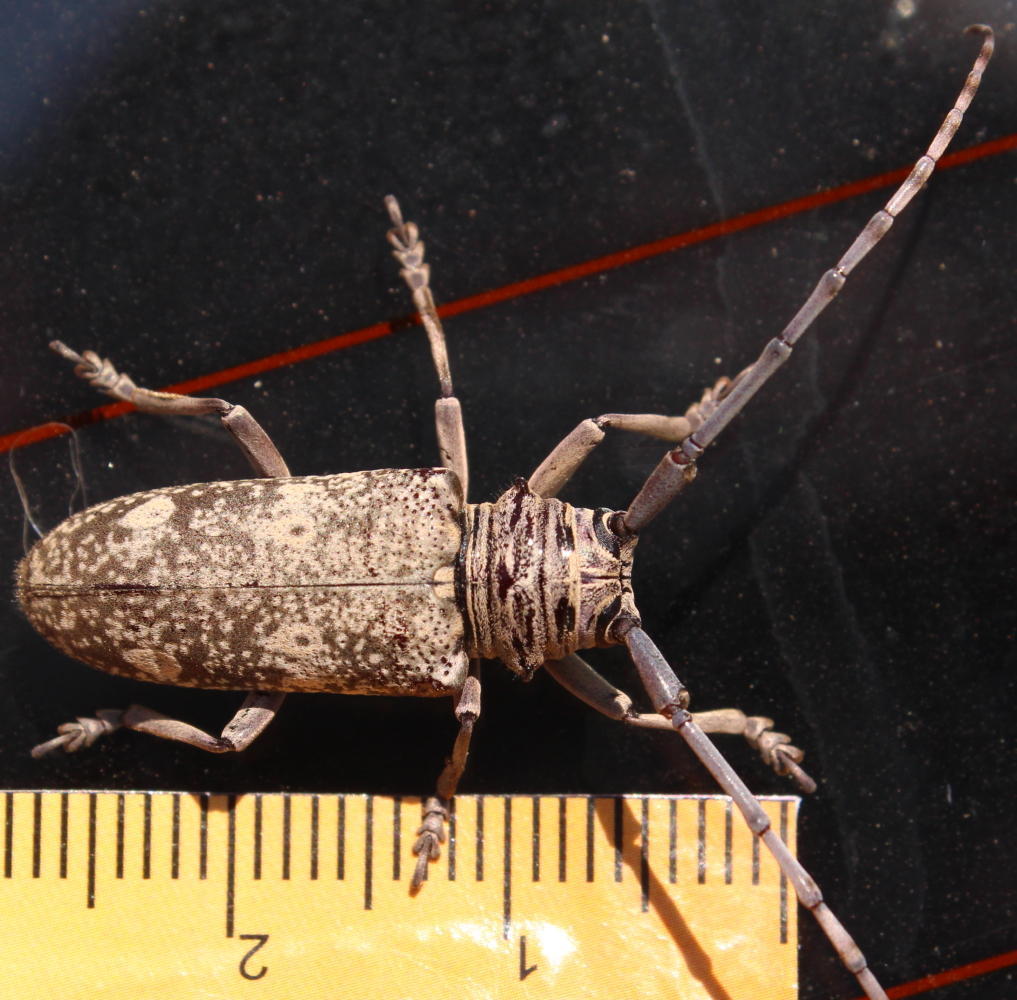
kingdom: Animalia
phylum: Arthropoda
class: Insecta
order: Coleoptera
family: Cerambycidae
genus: Prosopocera
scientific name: Prosopocera dejeani
